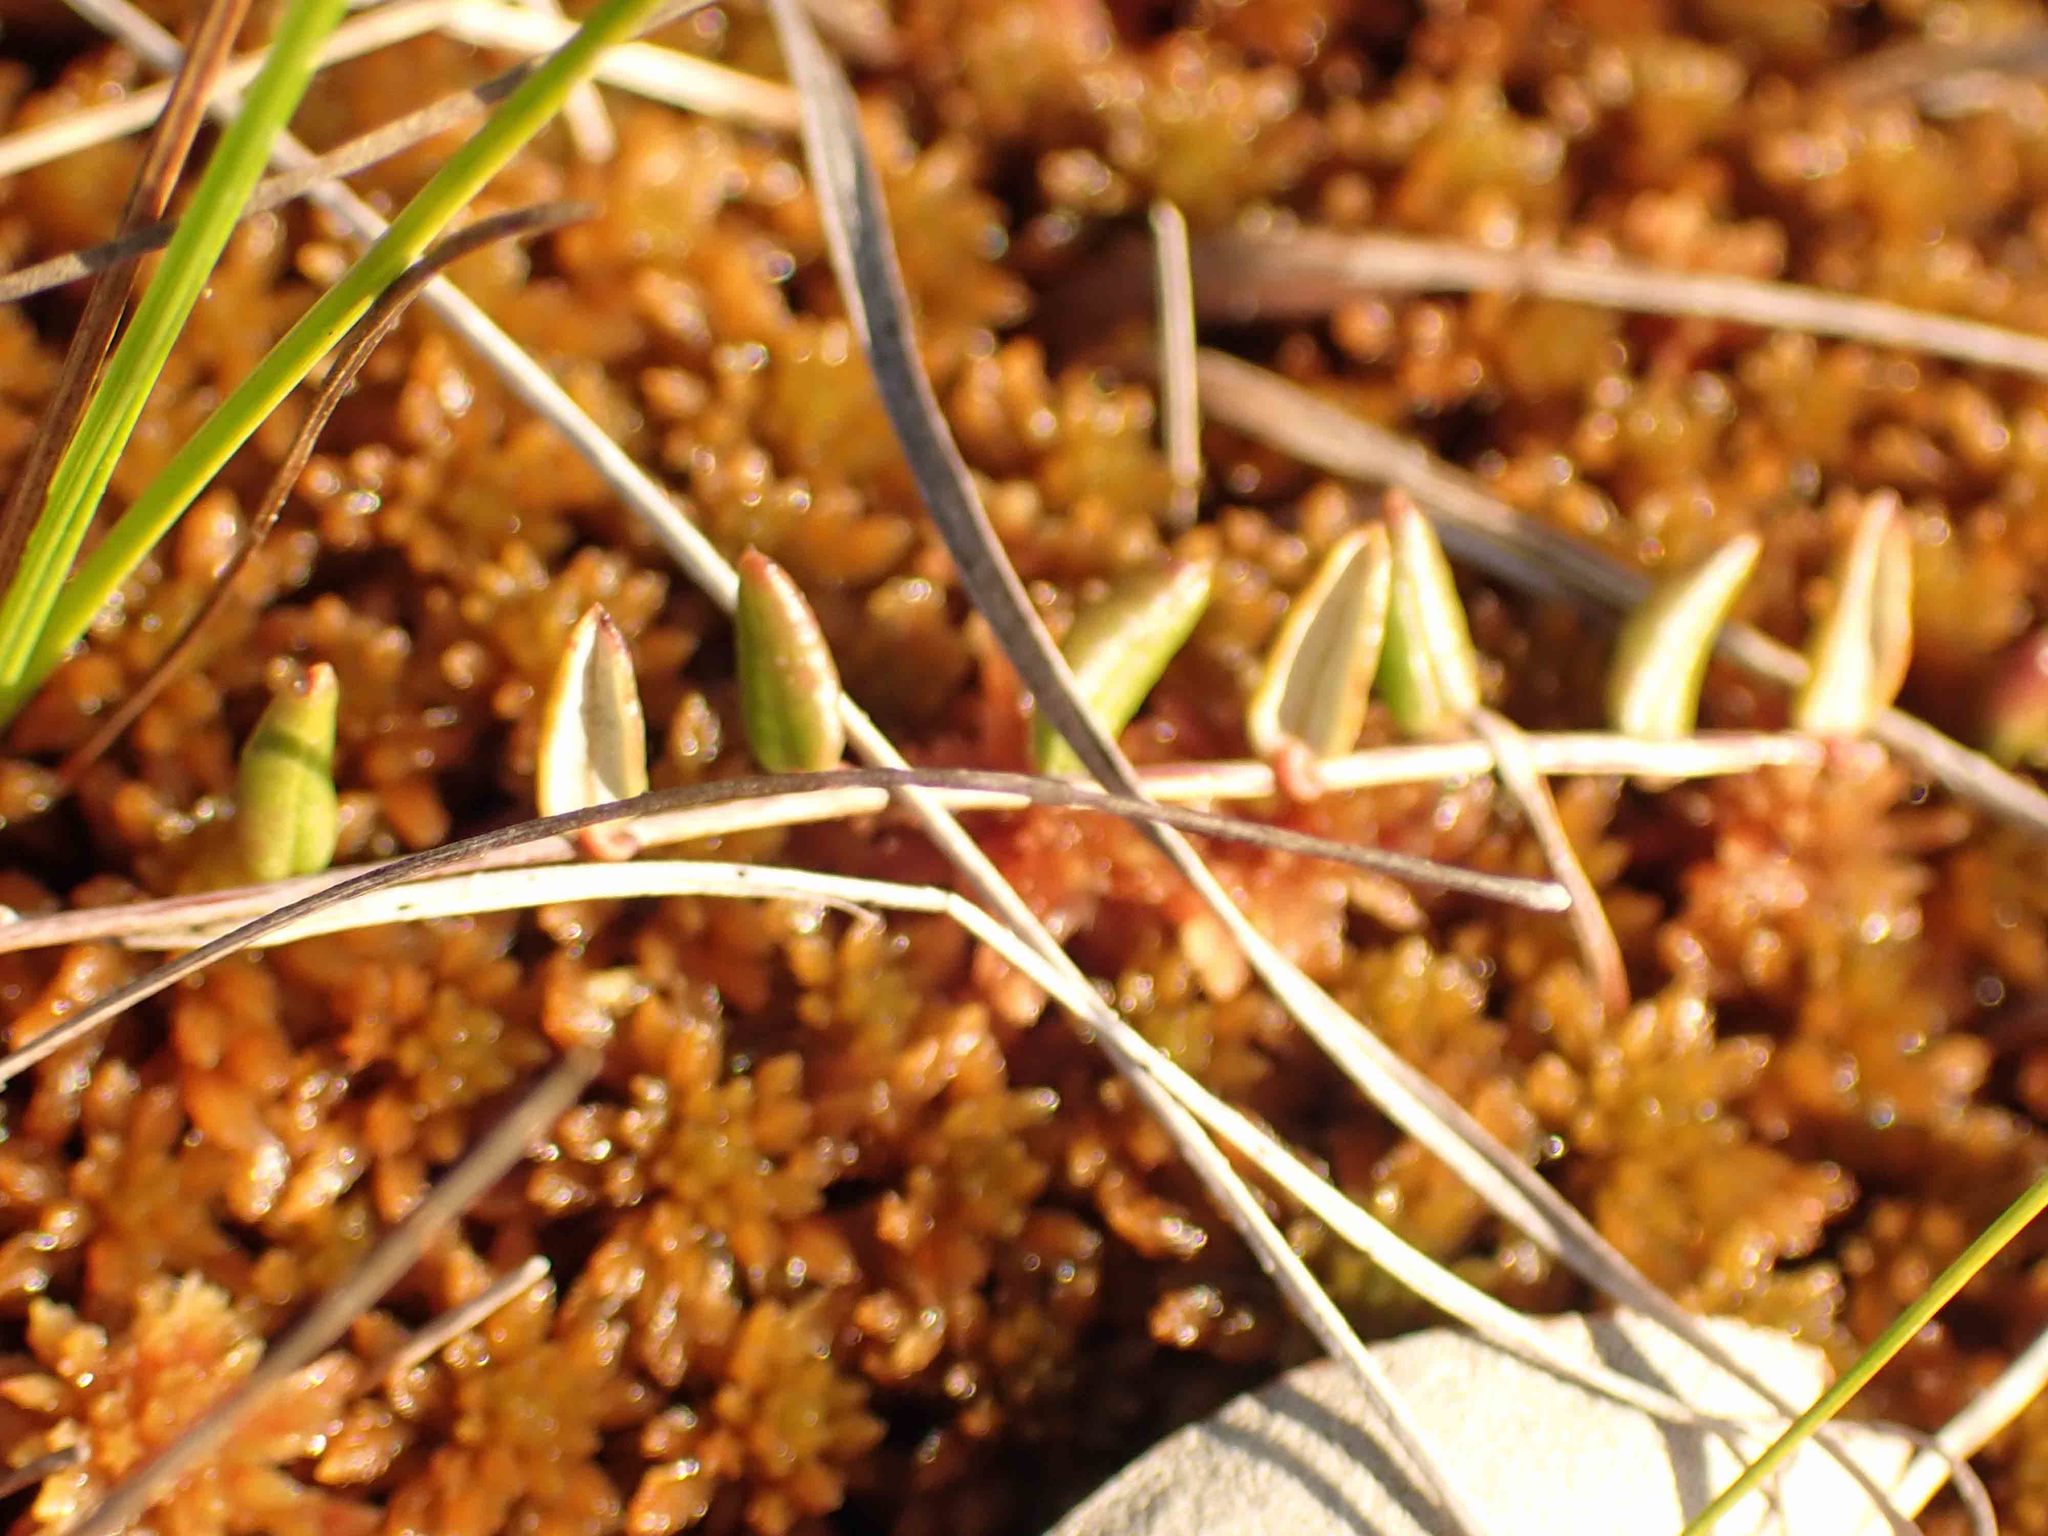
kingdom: Plantae
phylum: Tracheophyta
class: Magnoliopsida
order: Ericales
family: Ericaceae
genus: Vaccinium
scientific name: Vaccinium oxycoccos
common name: Cranberry
